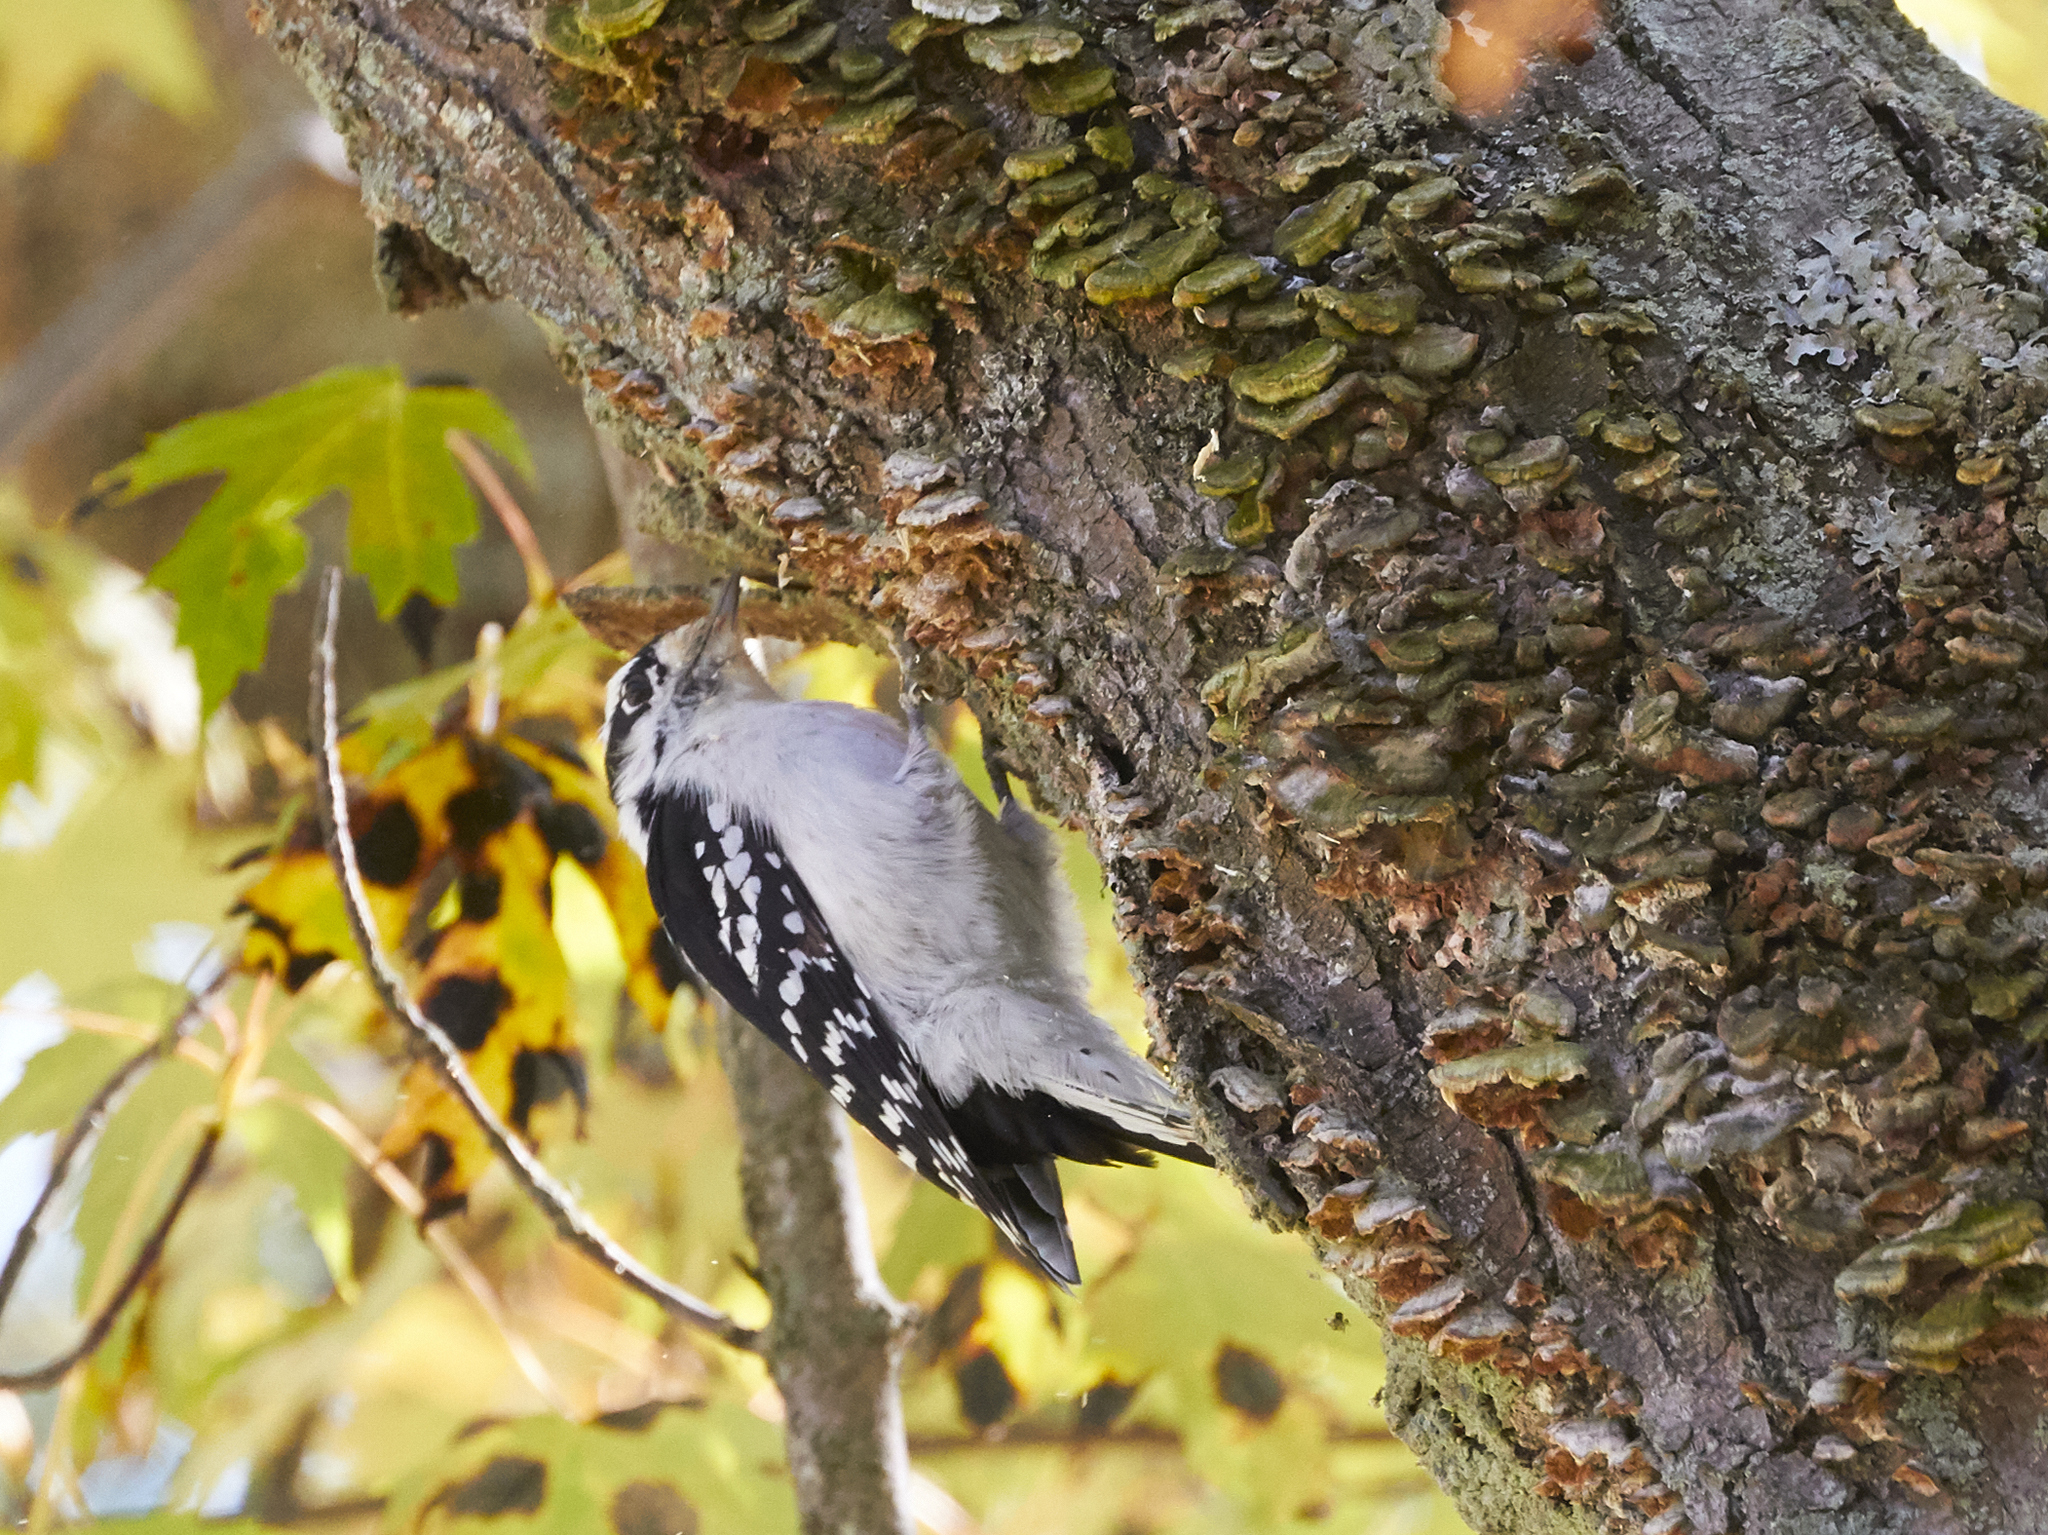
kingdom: Animalia
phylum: Chordata
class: Aves
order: Piciformes
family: Picidae
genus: Dryobates
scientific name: Dryobates pubescens
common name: Downy woodpecker
